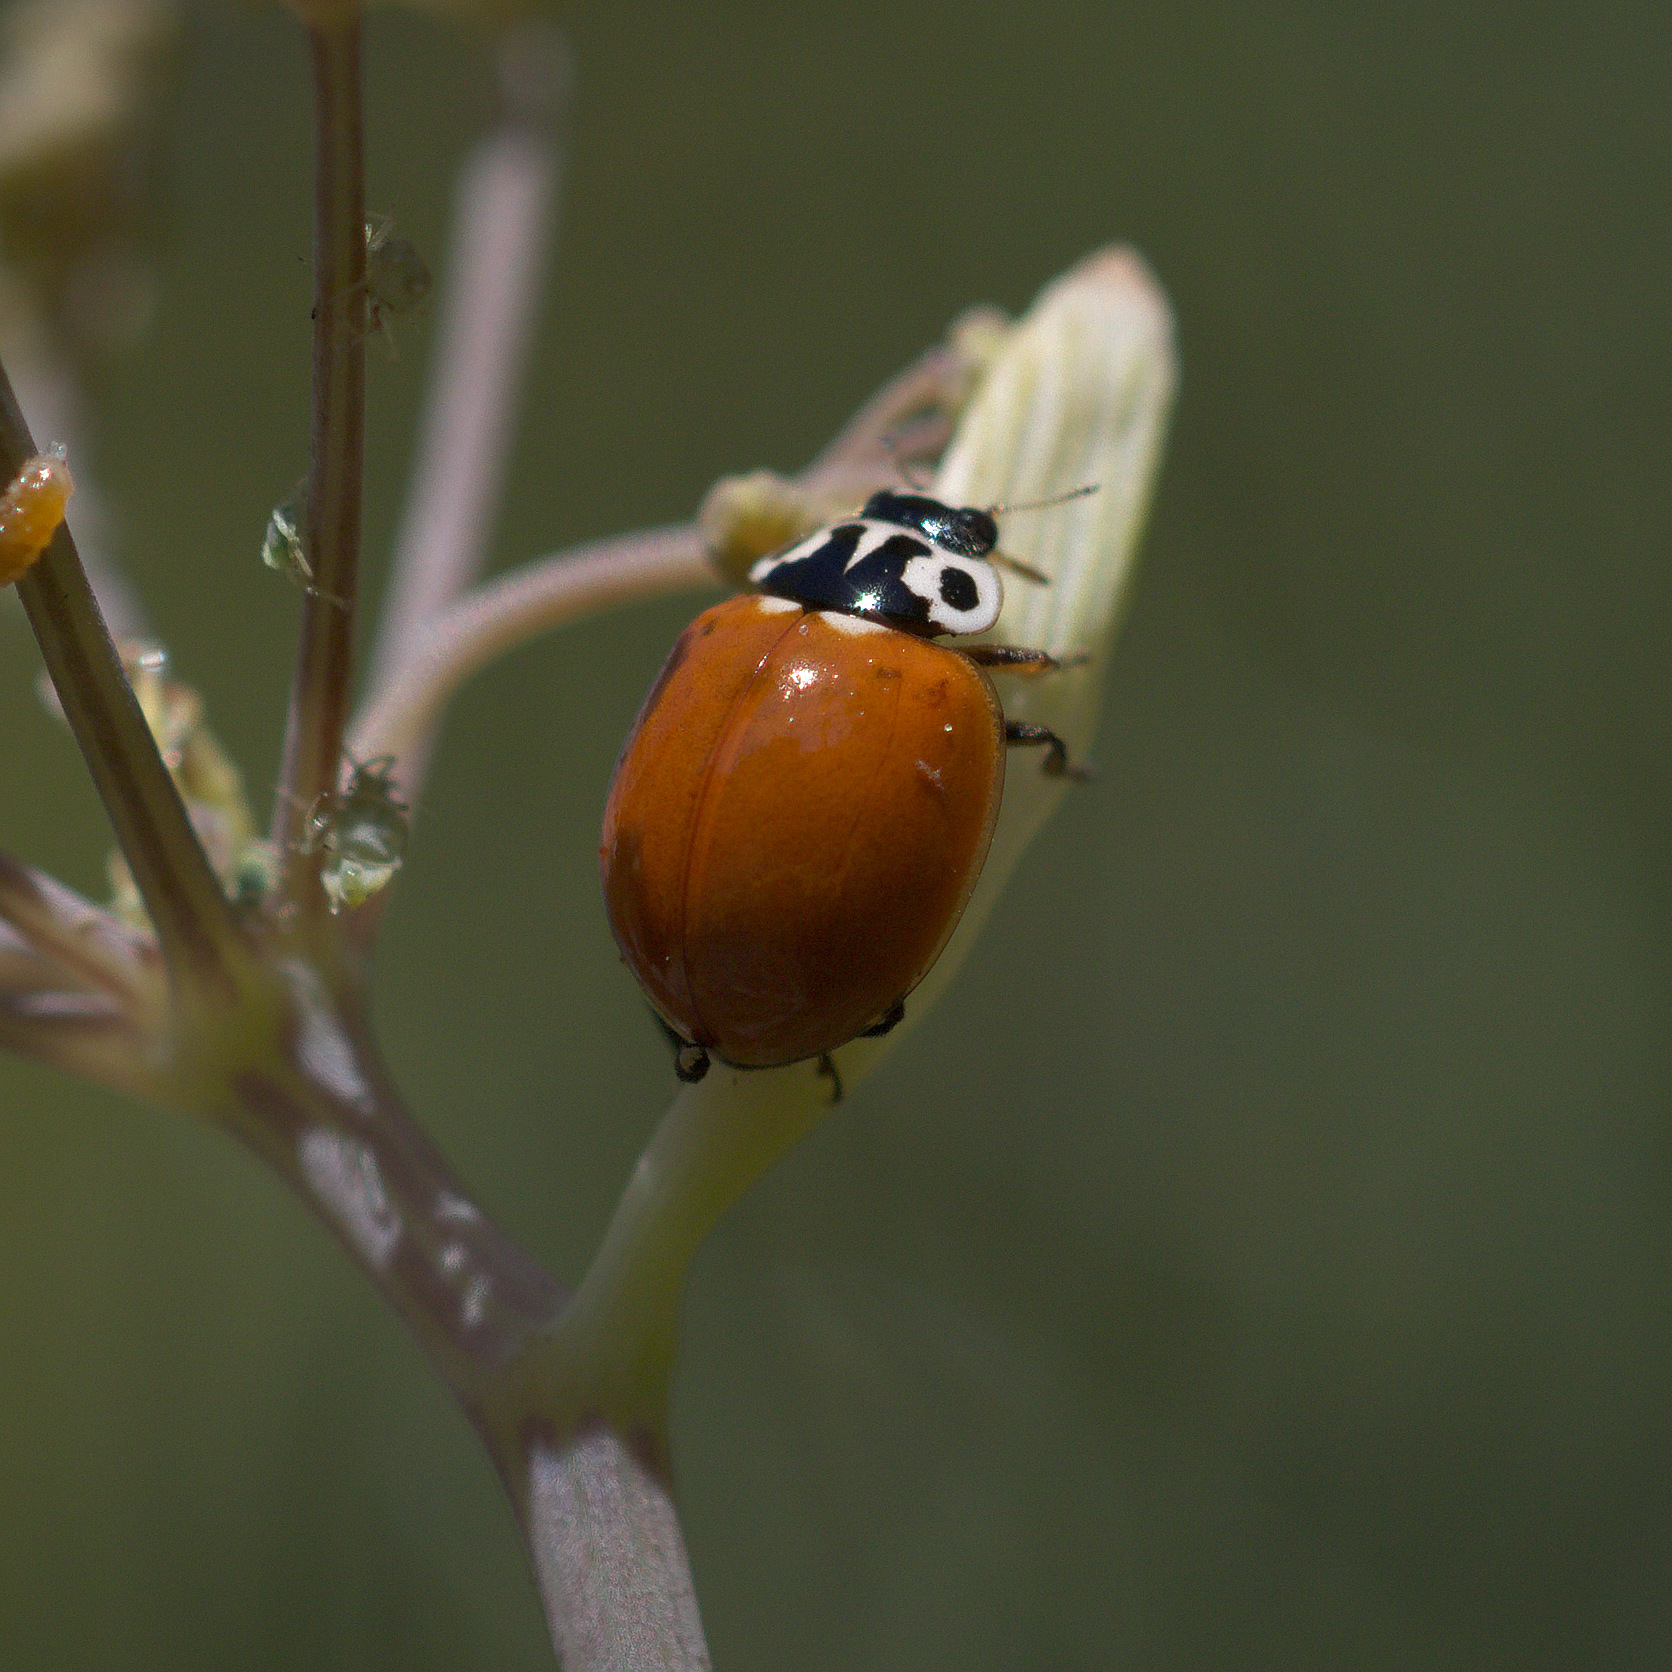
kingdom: Animalia
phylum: Arthropoda
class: Insecta
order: Coleoptera
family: Coccinellidae
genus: Cycloneda
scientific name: Cycloneda polita
